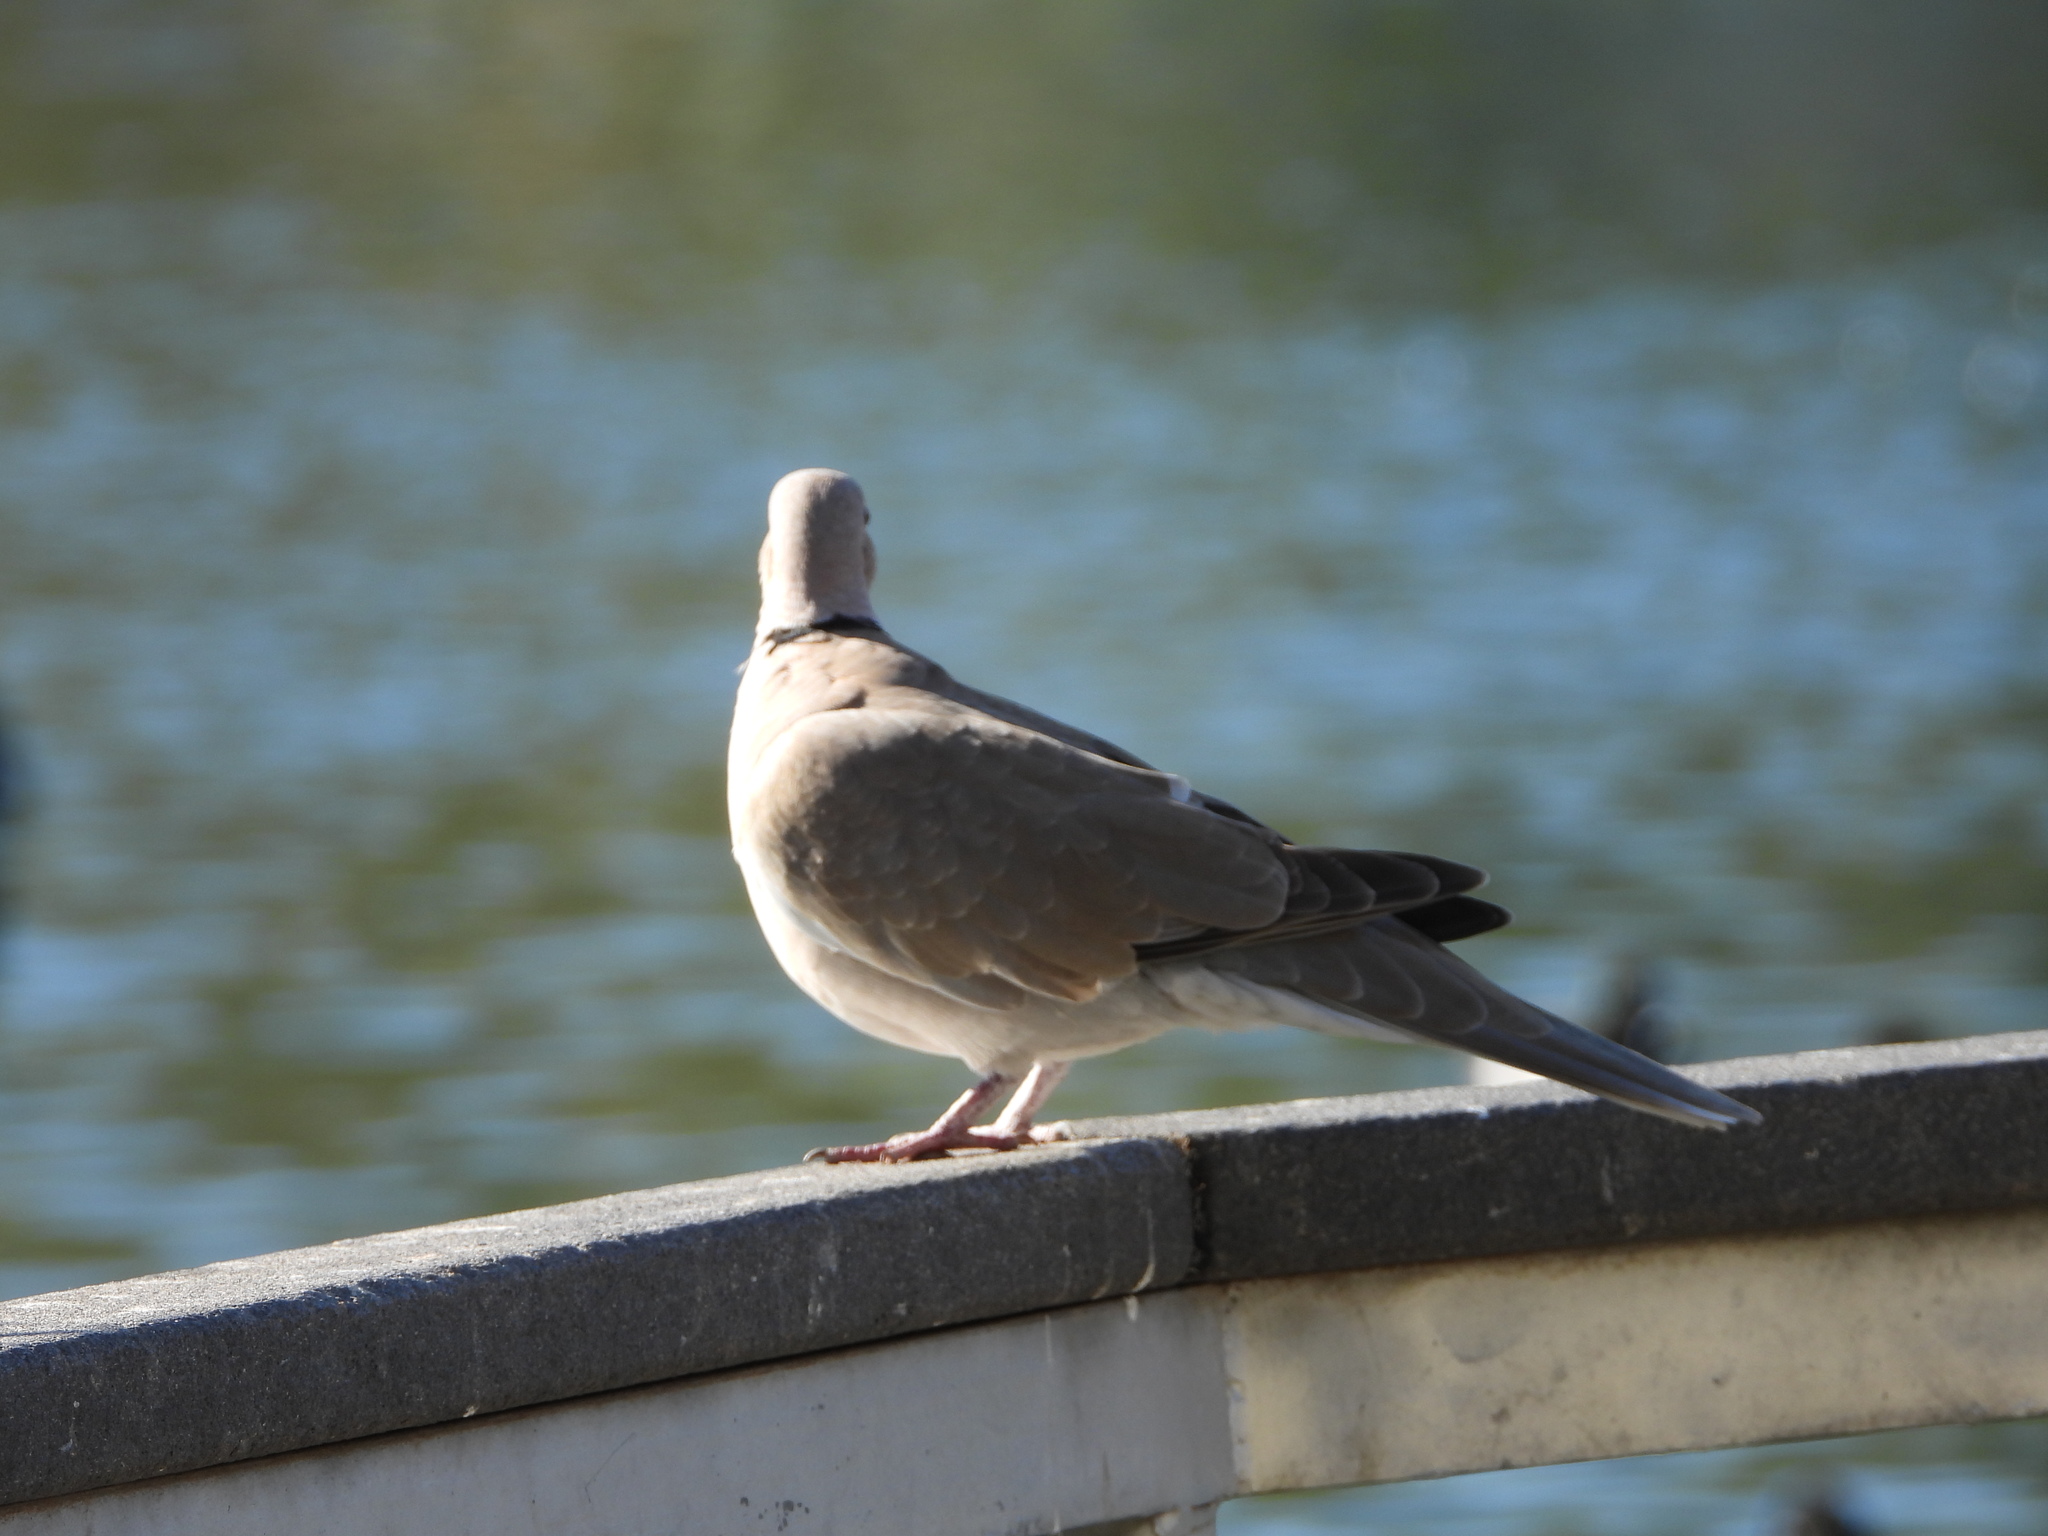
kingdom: Animalia
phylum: Chordata
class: Aves
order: Columbiformes
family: Columbidae
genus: Streptopelia
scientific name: Streptopelia decaocto
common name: Eurasian collared dove
